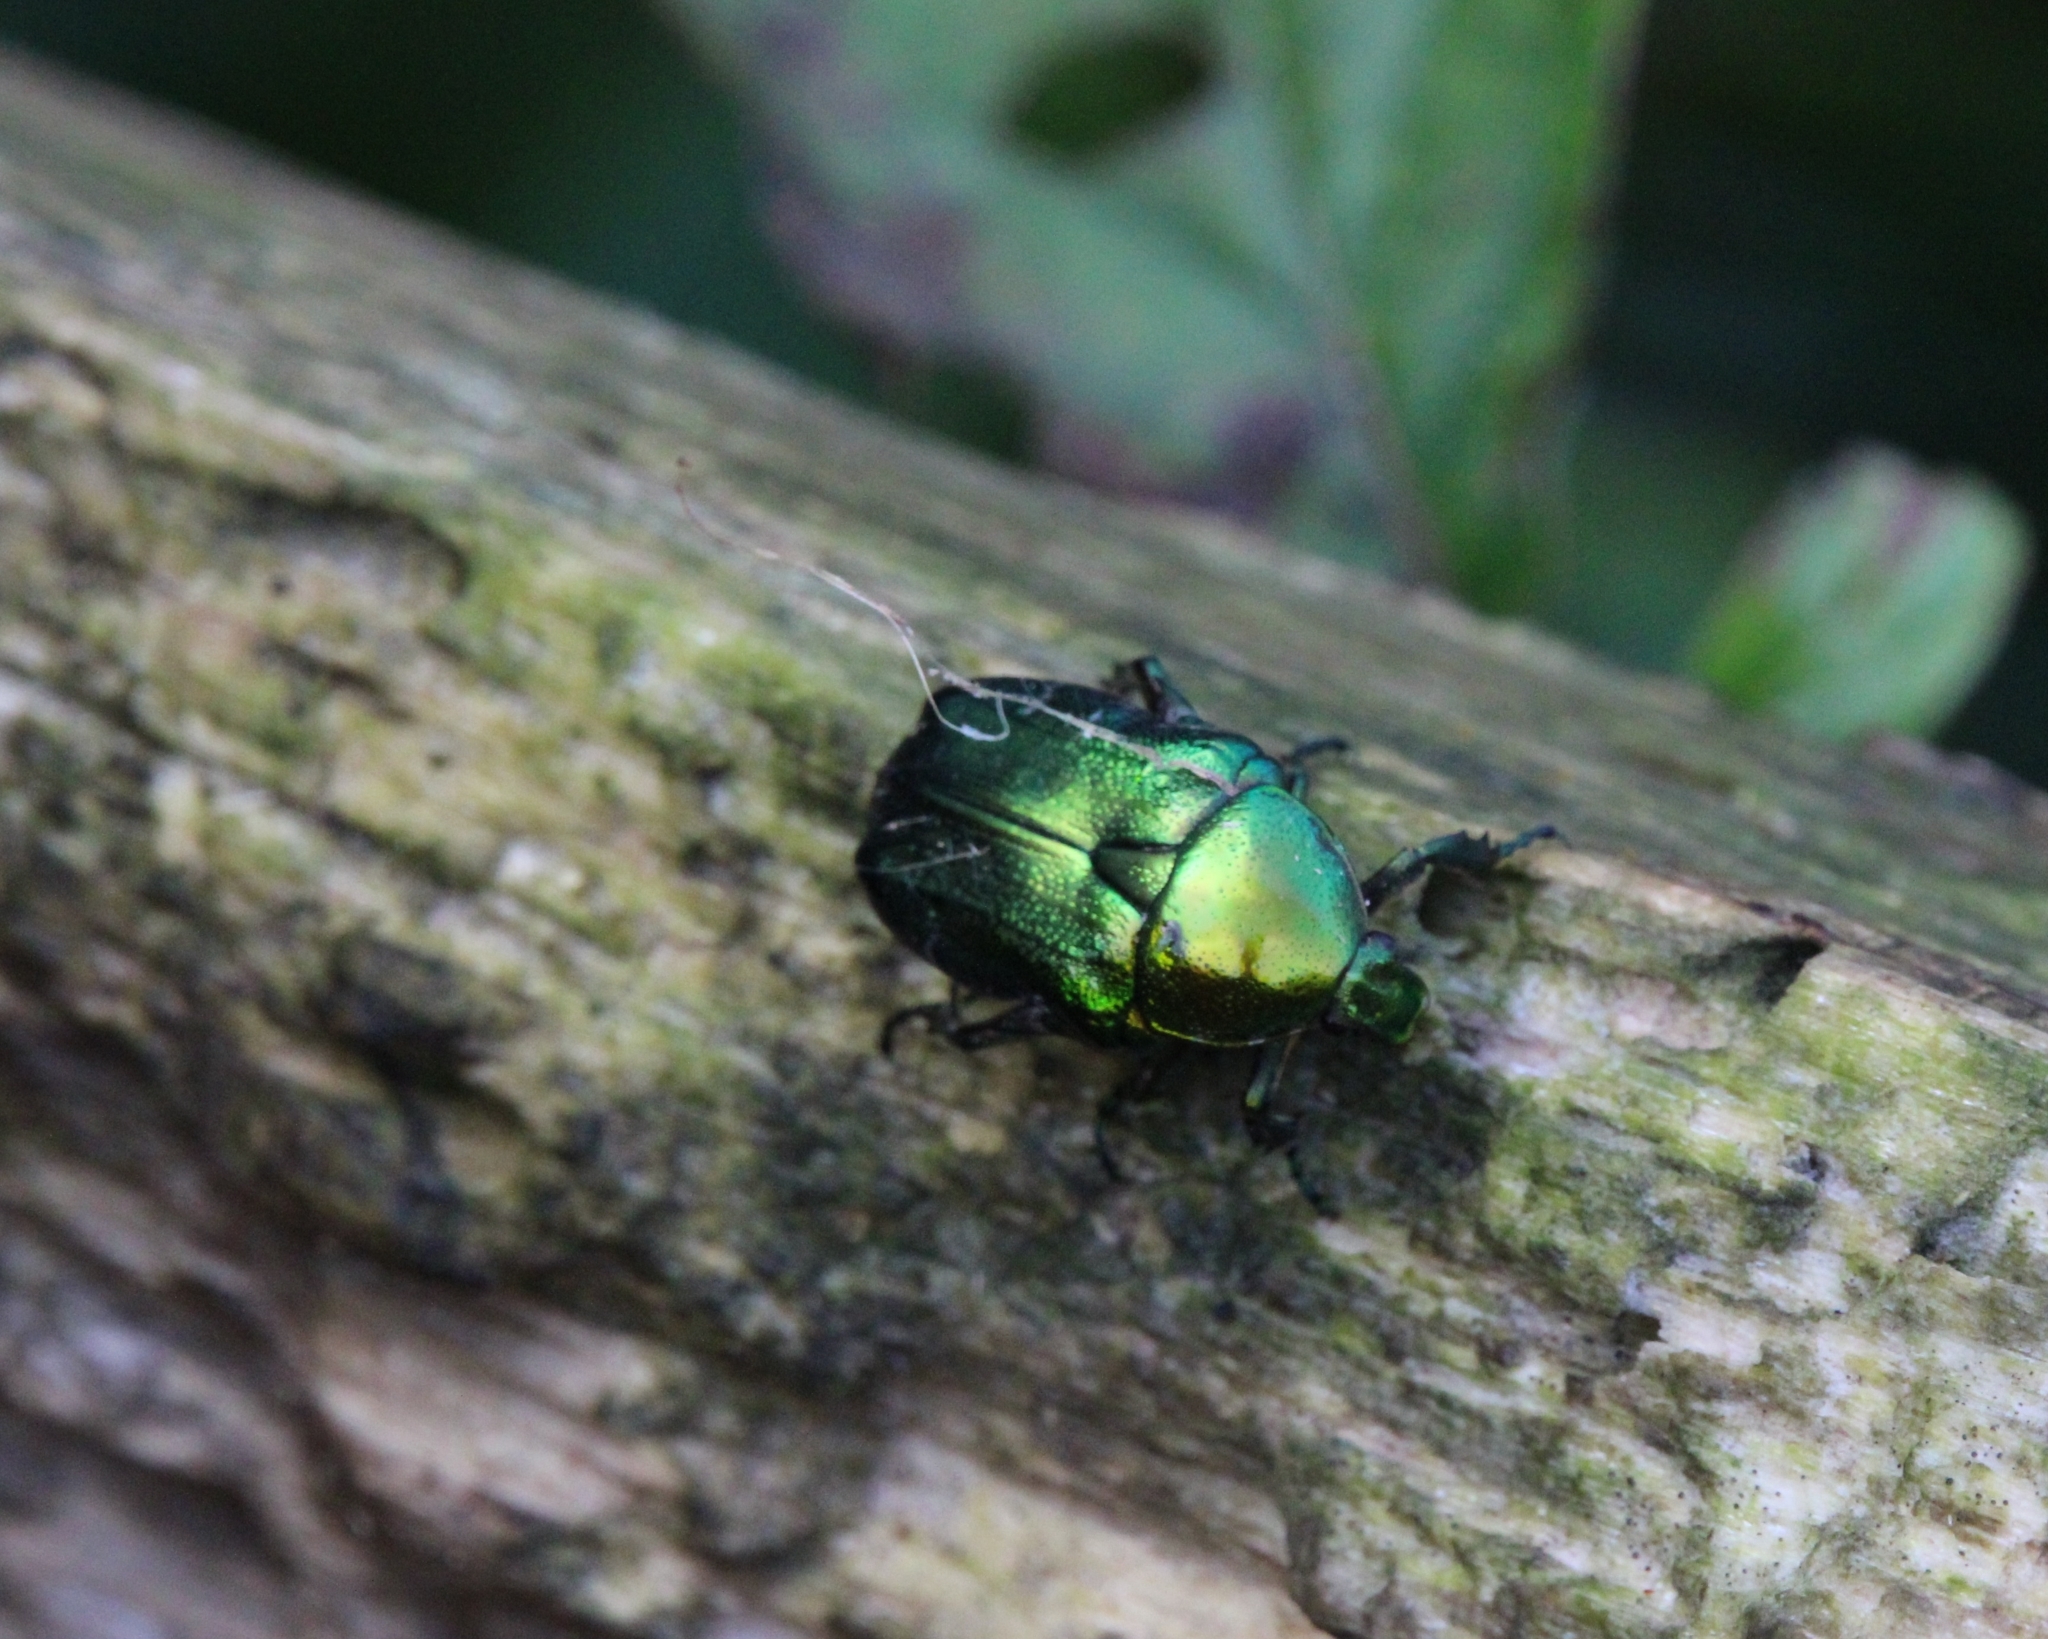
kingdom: Animalia
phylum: Arthropoda
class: Insecta
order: Coleoptera
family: Scarabaeidae
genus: Cetonia
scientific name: Cetonia aurata
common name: Rose chafer
